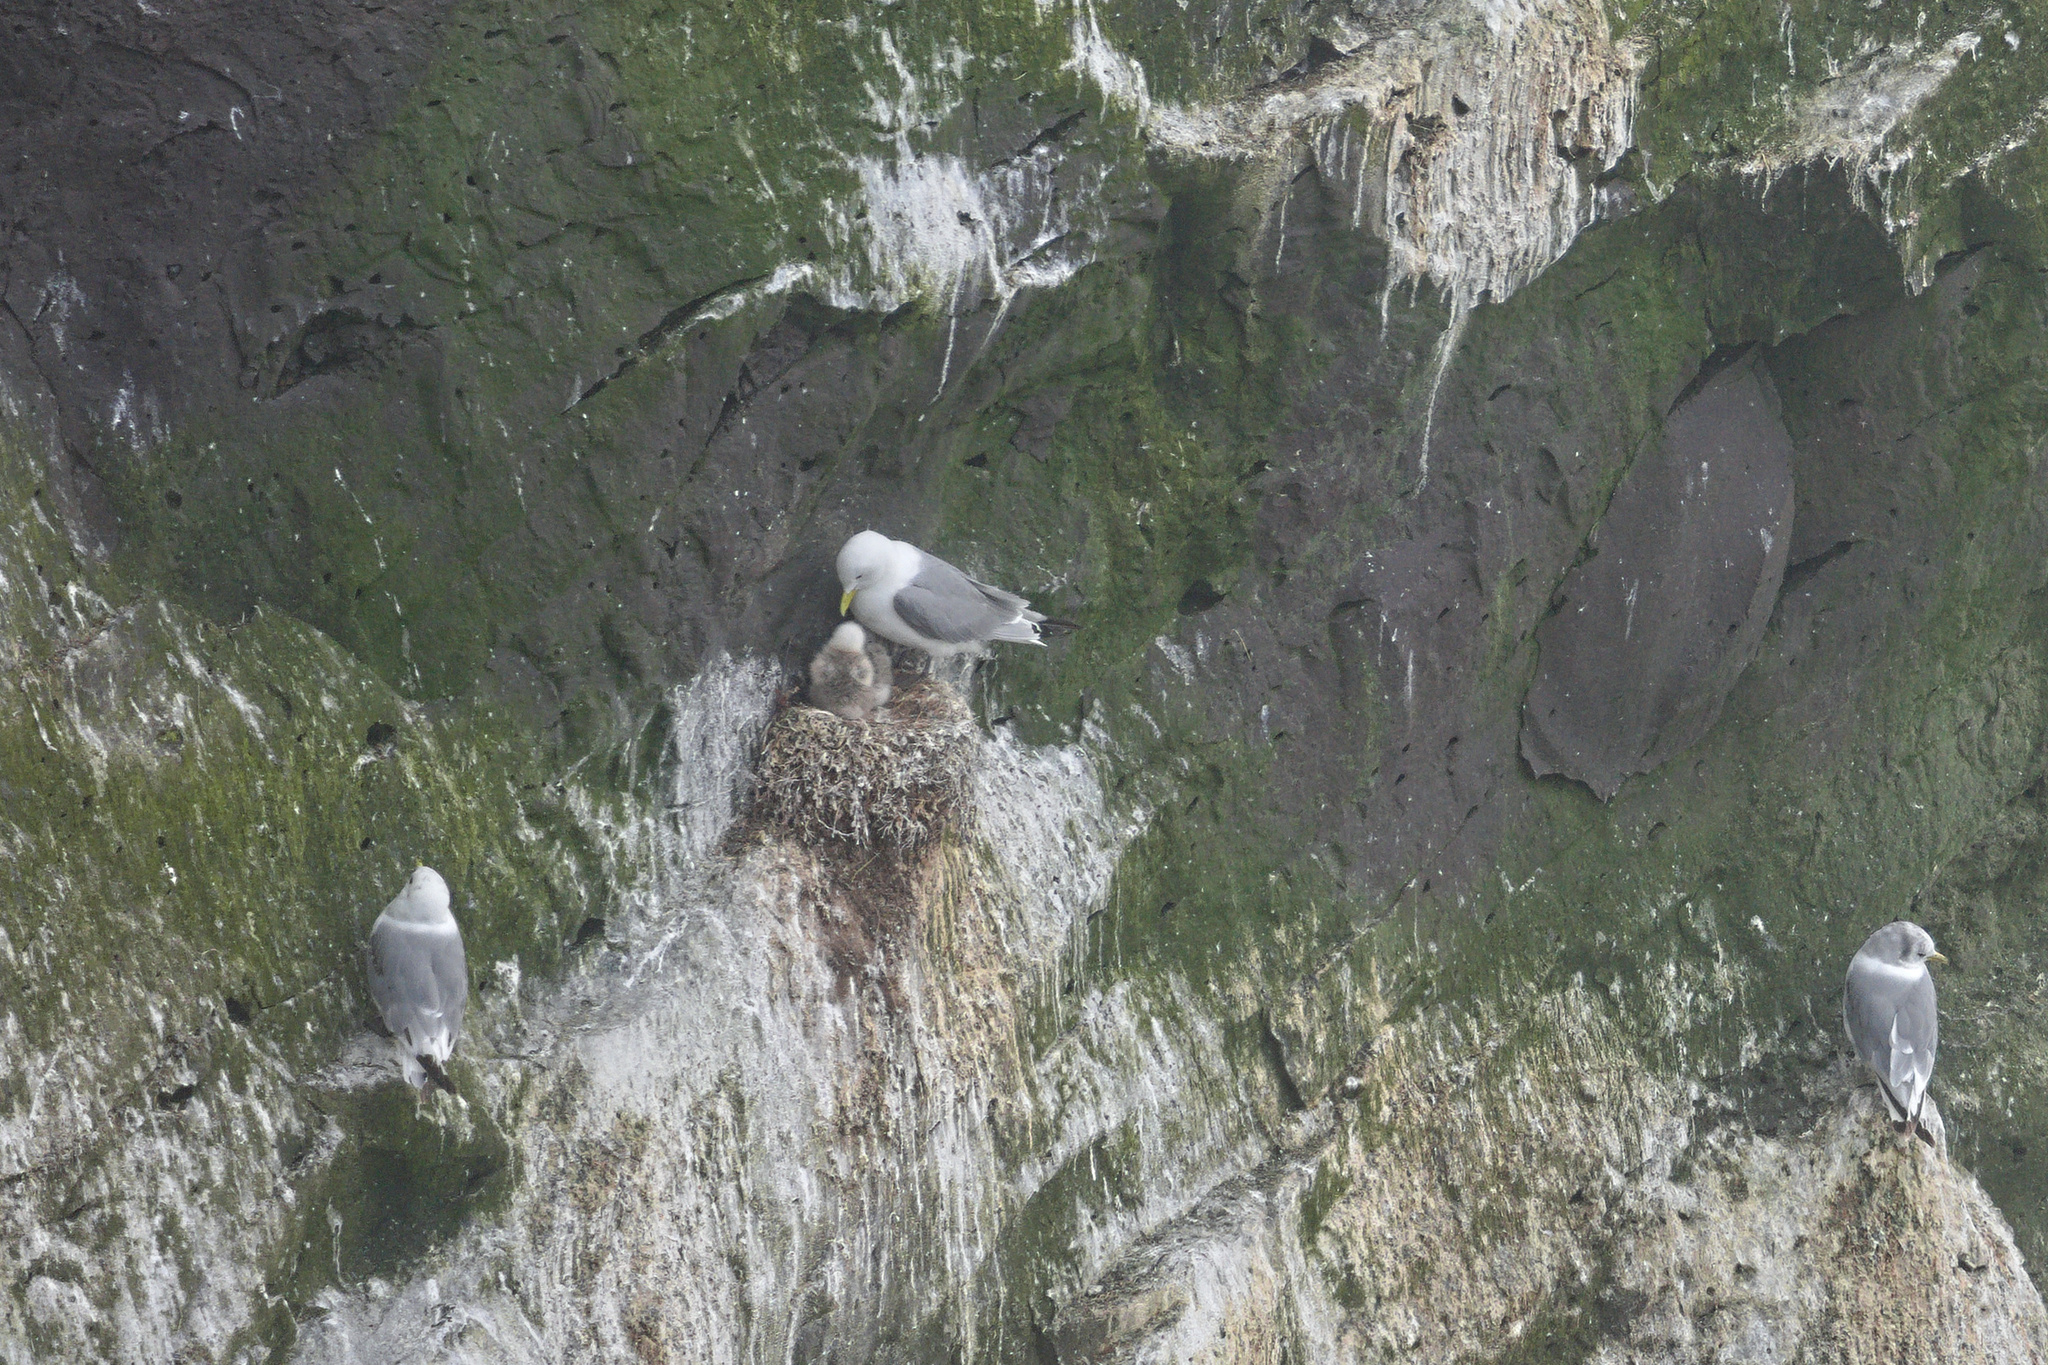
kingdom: Animalia
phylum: Chordata
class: Aves
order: Charadriiformes
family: Laridae
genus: Rissa
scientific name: Rissa tridactyla
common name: Black-legged kittiwake
